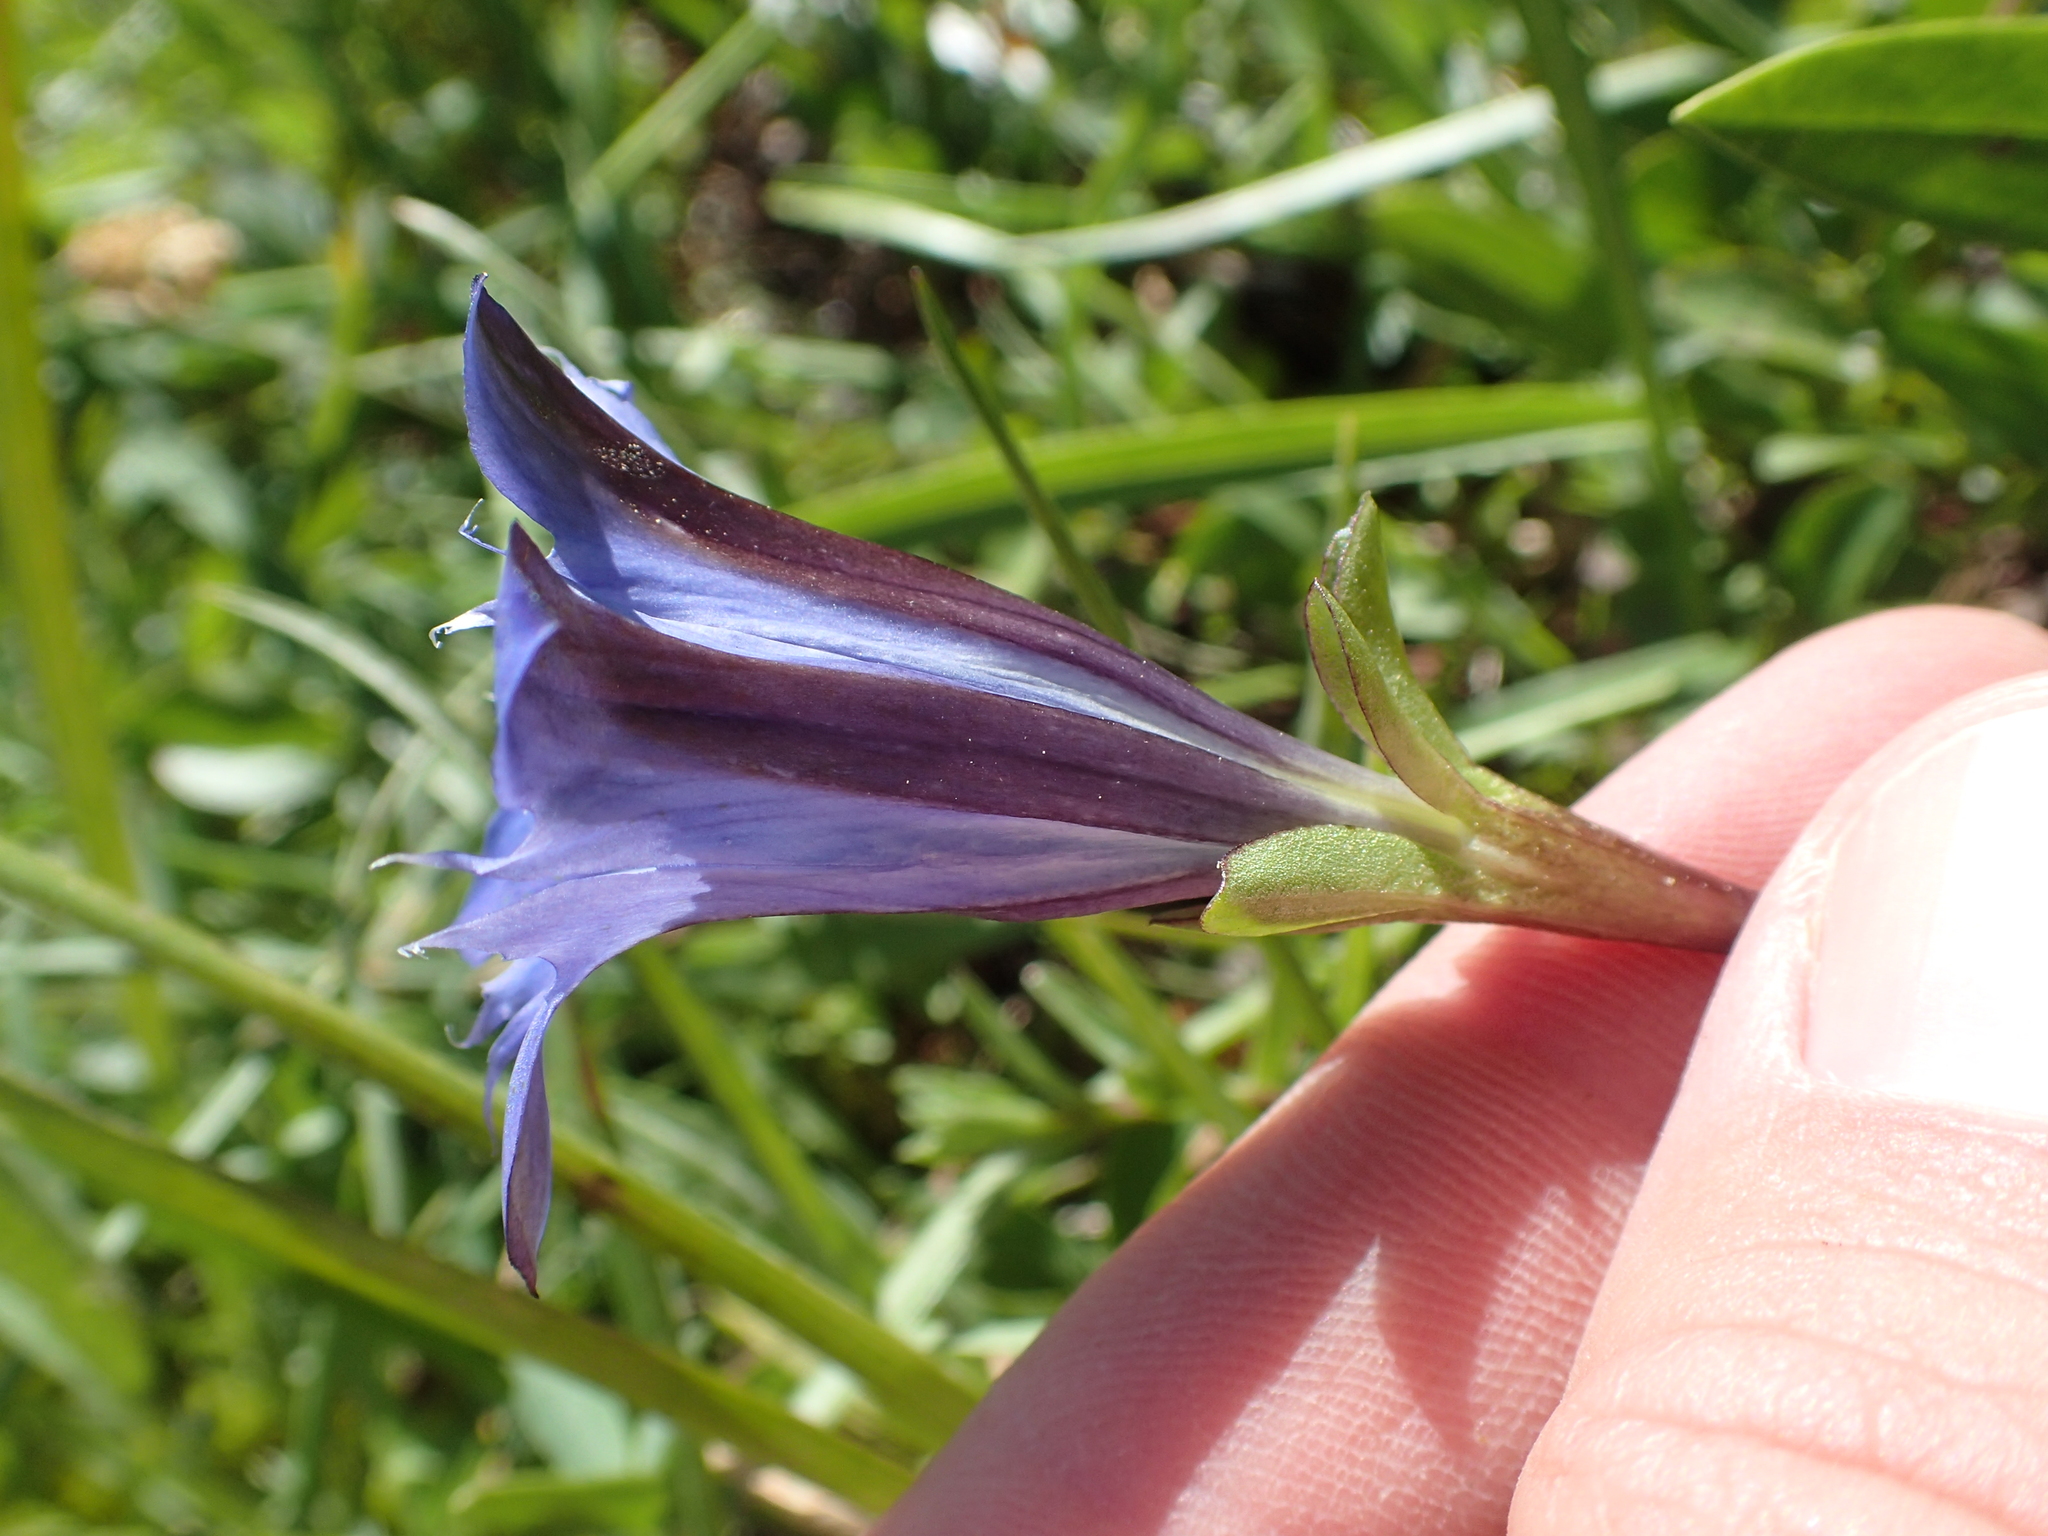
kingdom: Plantae
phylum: Tracheophyta
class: Magnoliopsida
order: Gentianales
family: Gentianaceae
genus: Gentiana
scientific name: Gentiana newberryi
